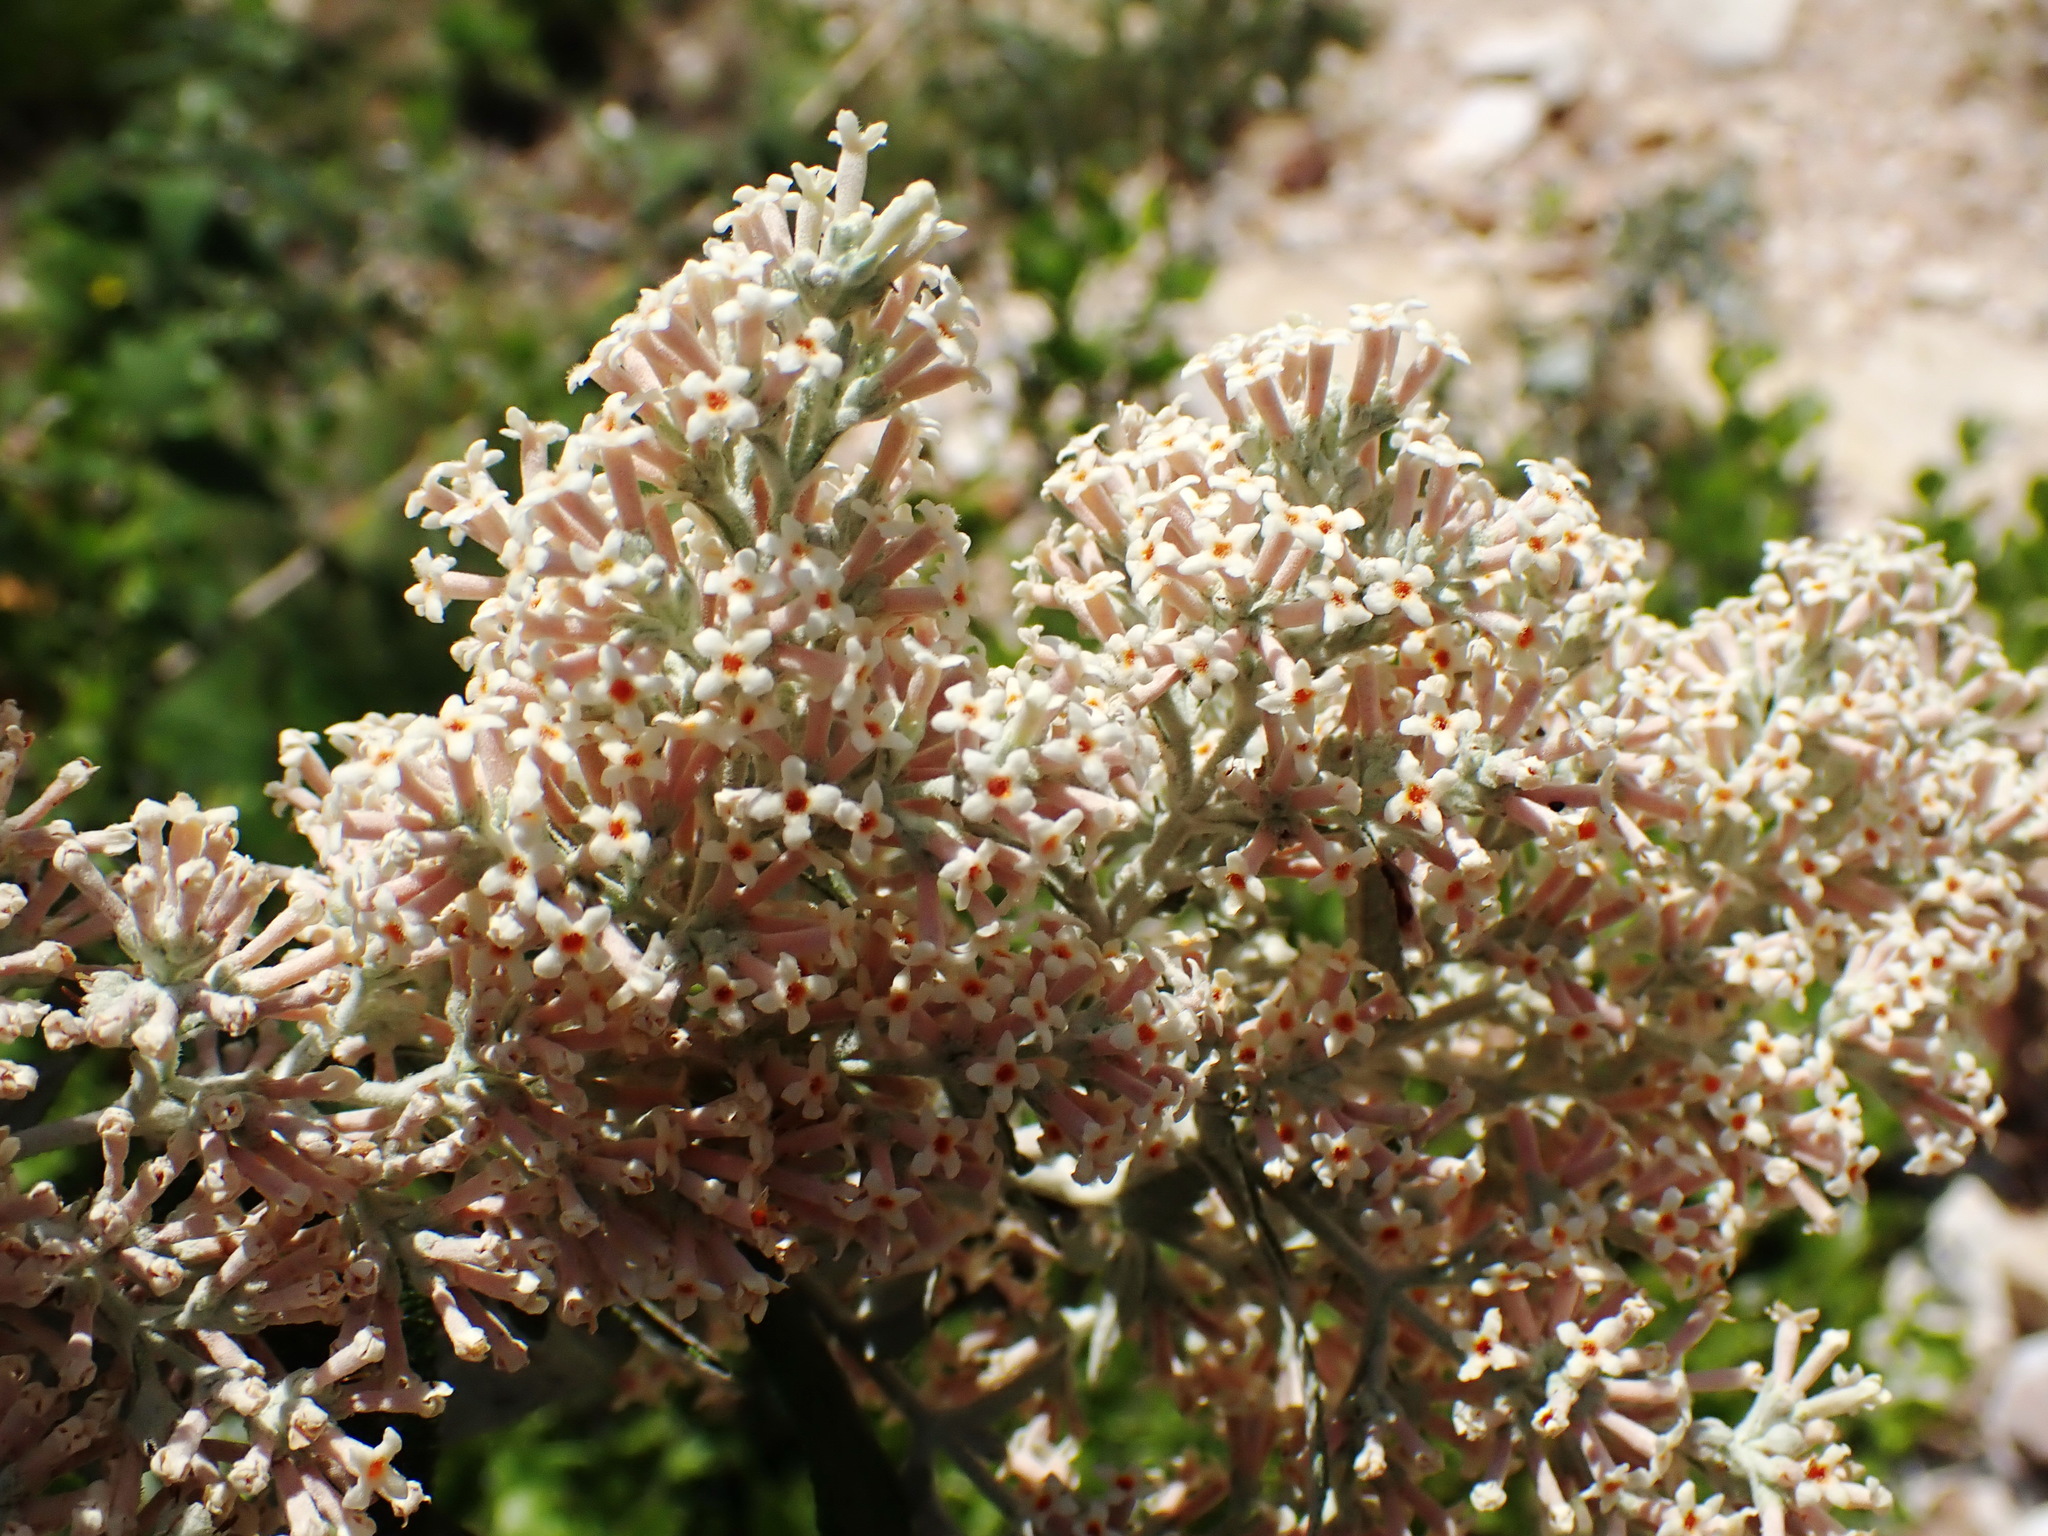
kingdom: Plantae
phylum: Tracheophyta
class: Magnoliopsida
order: Lamiales
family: Scrophulariaceae
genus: Buddleja
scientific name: Buddleja salviifolia
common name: Sagewood
